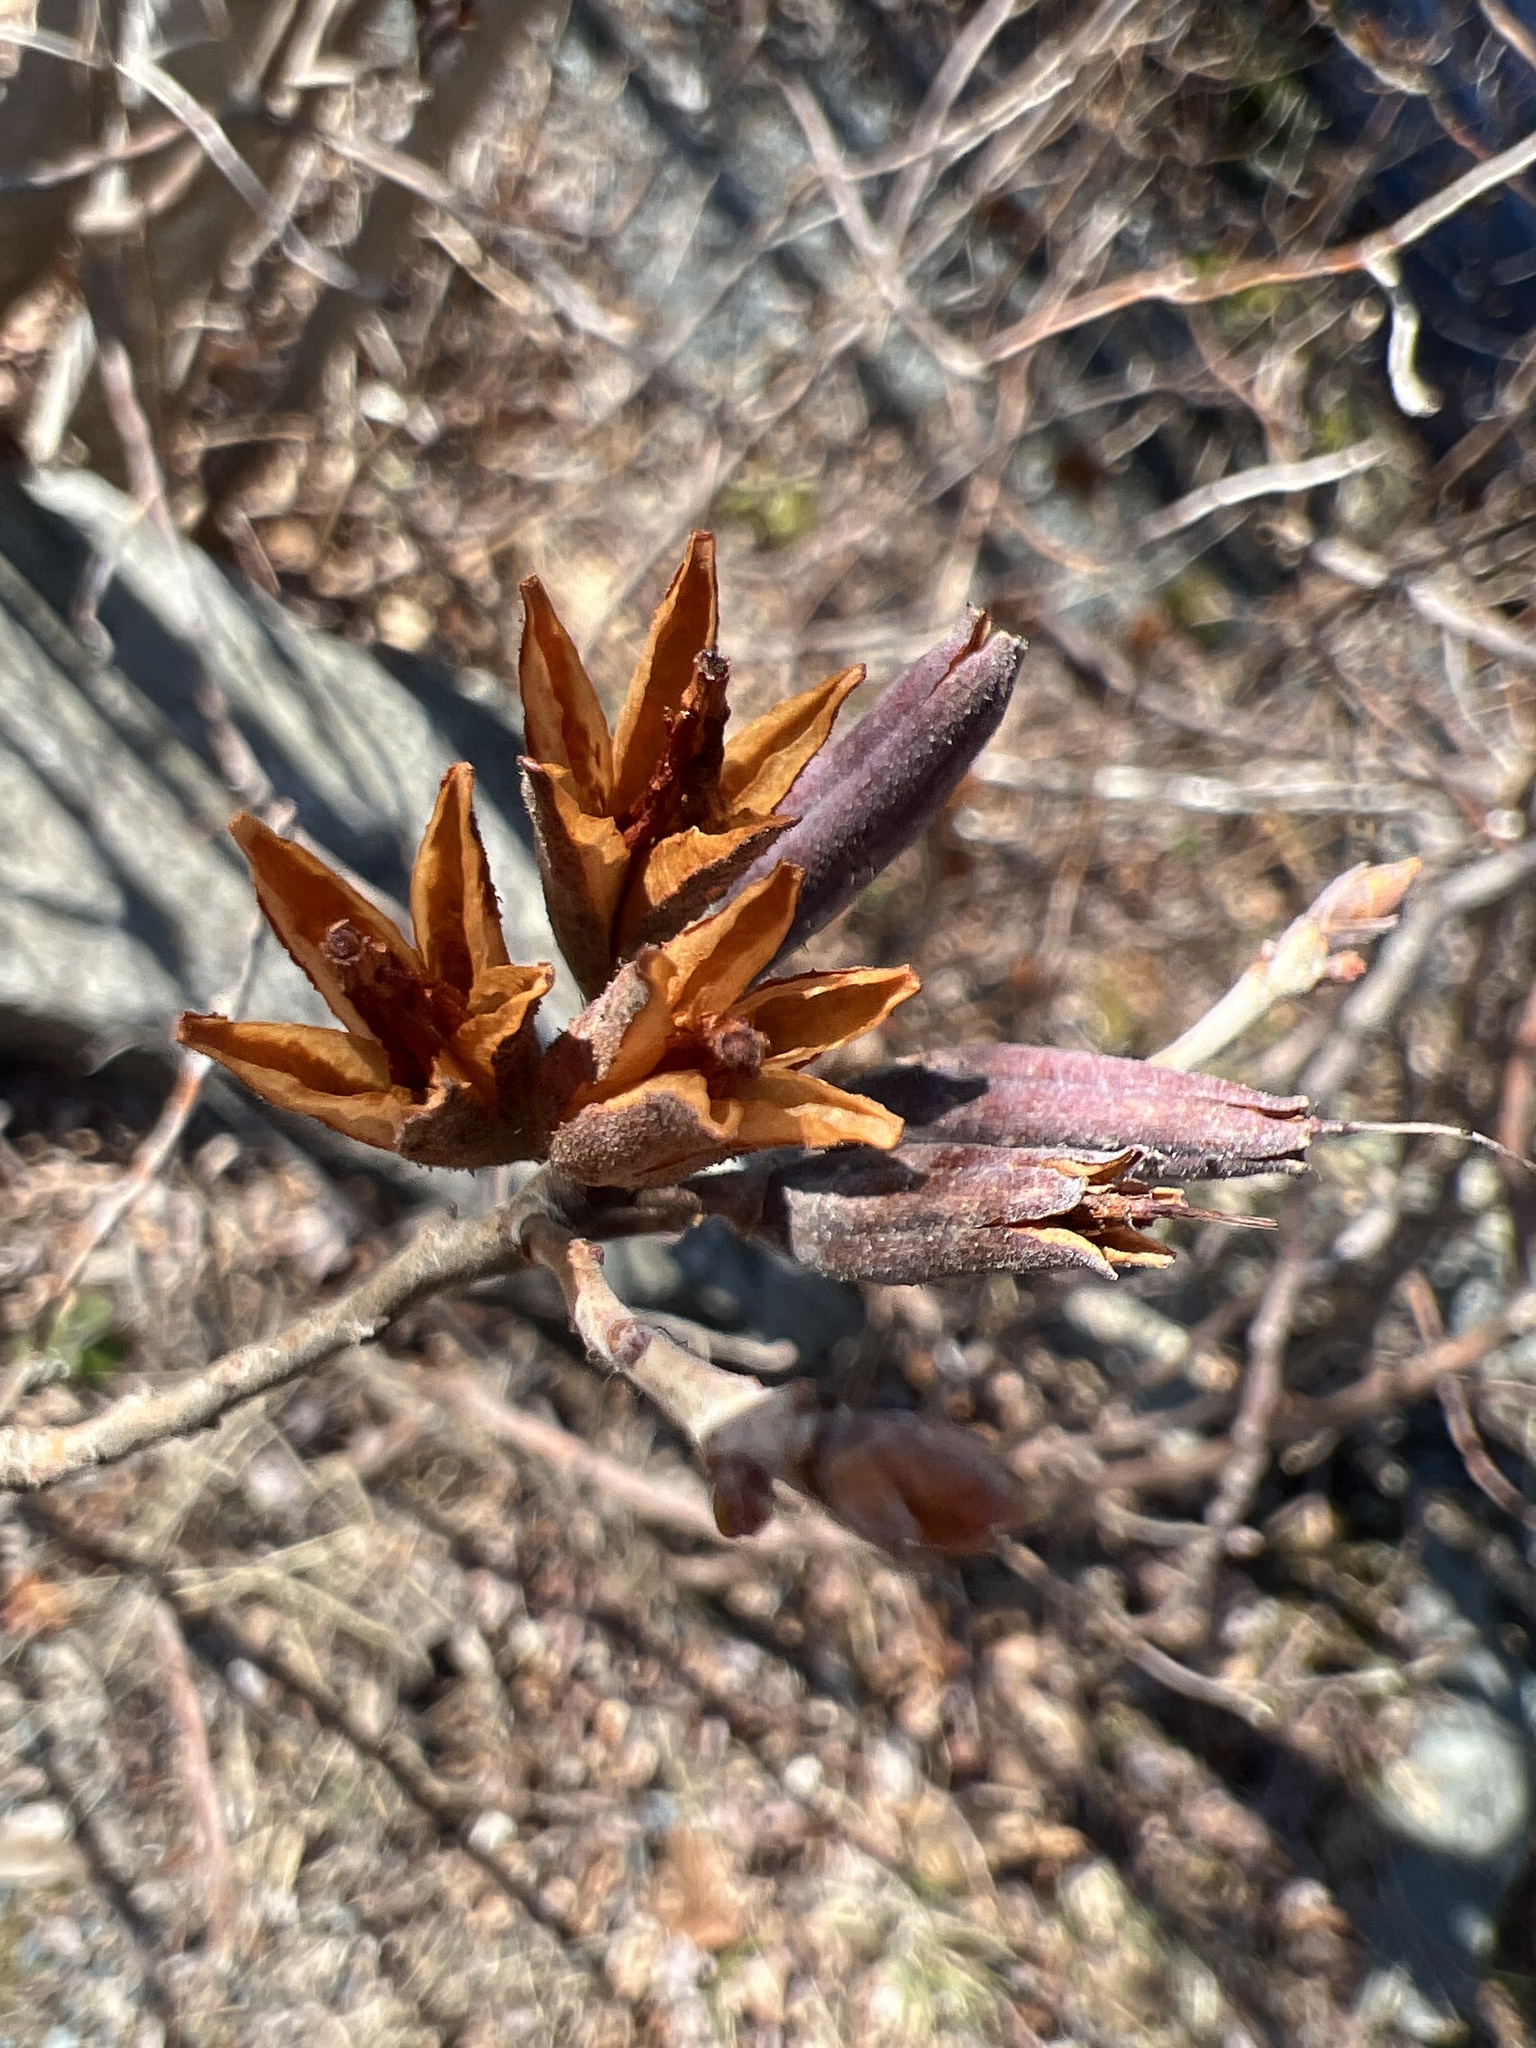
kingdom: Plantae
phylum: Tracheophyta
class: Magnoliopsida
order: Ericales
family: Ericaceae
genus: Rhododendron
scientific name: Rhododendron canadense
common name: Rhodora
